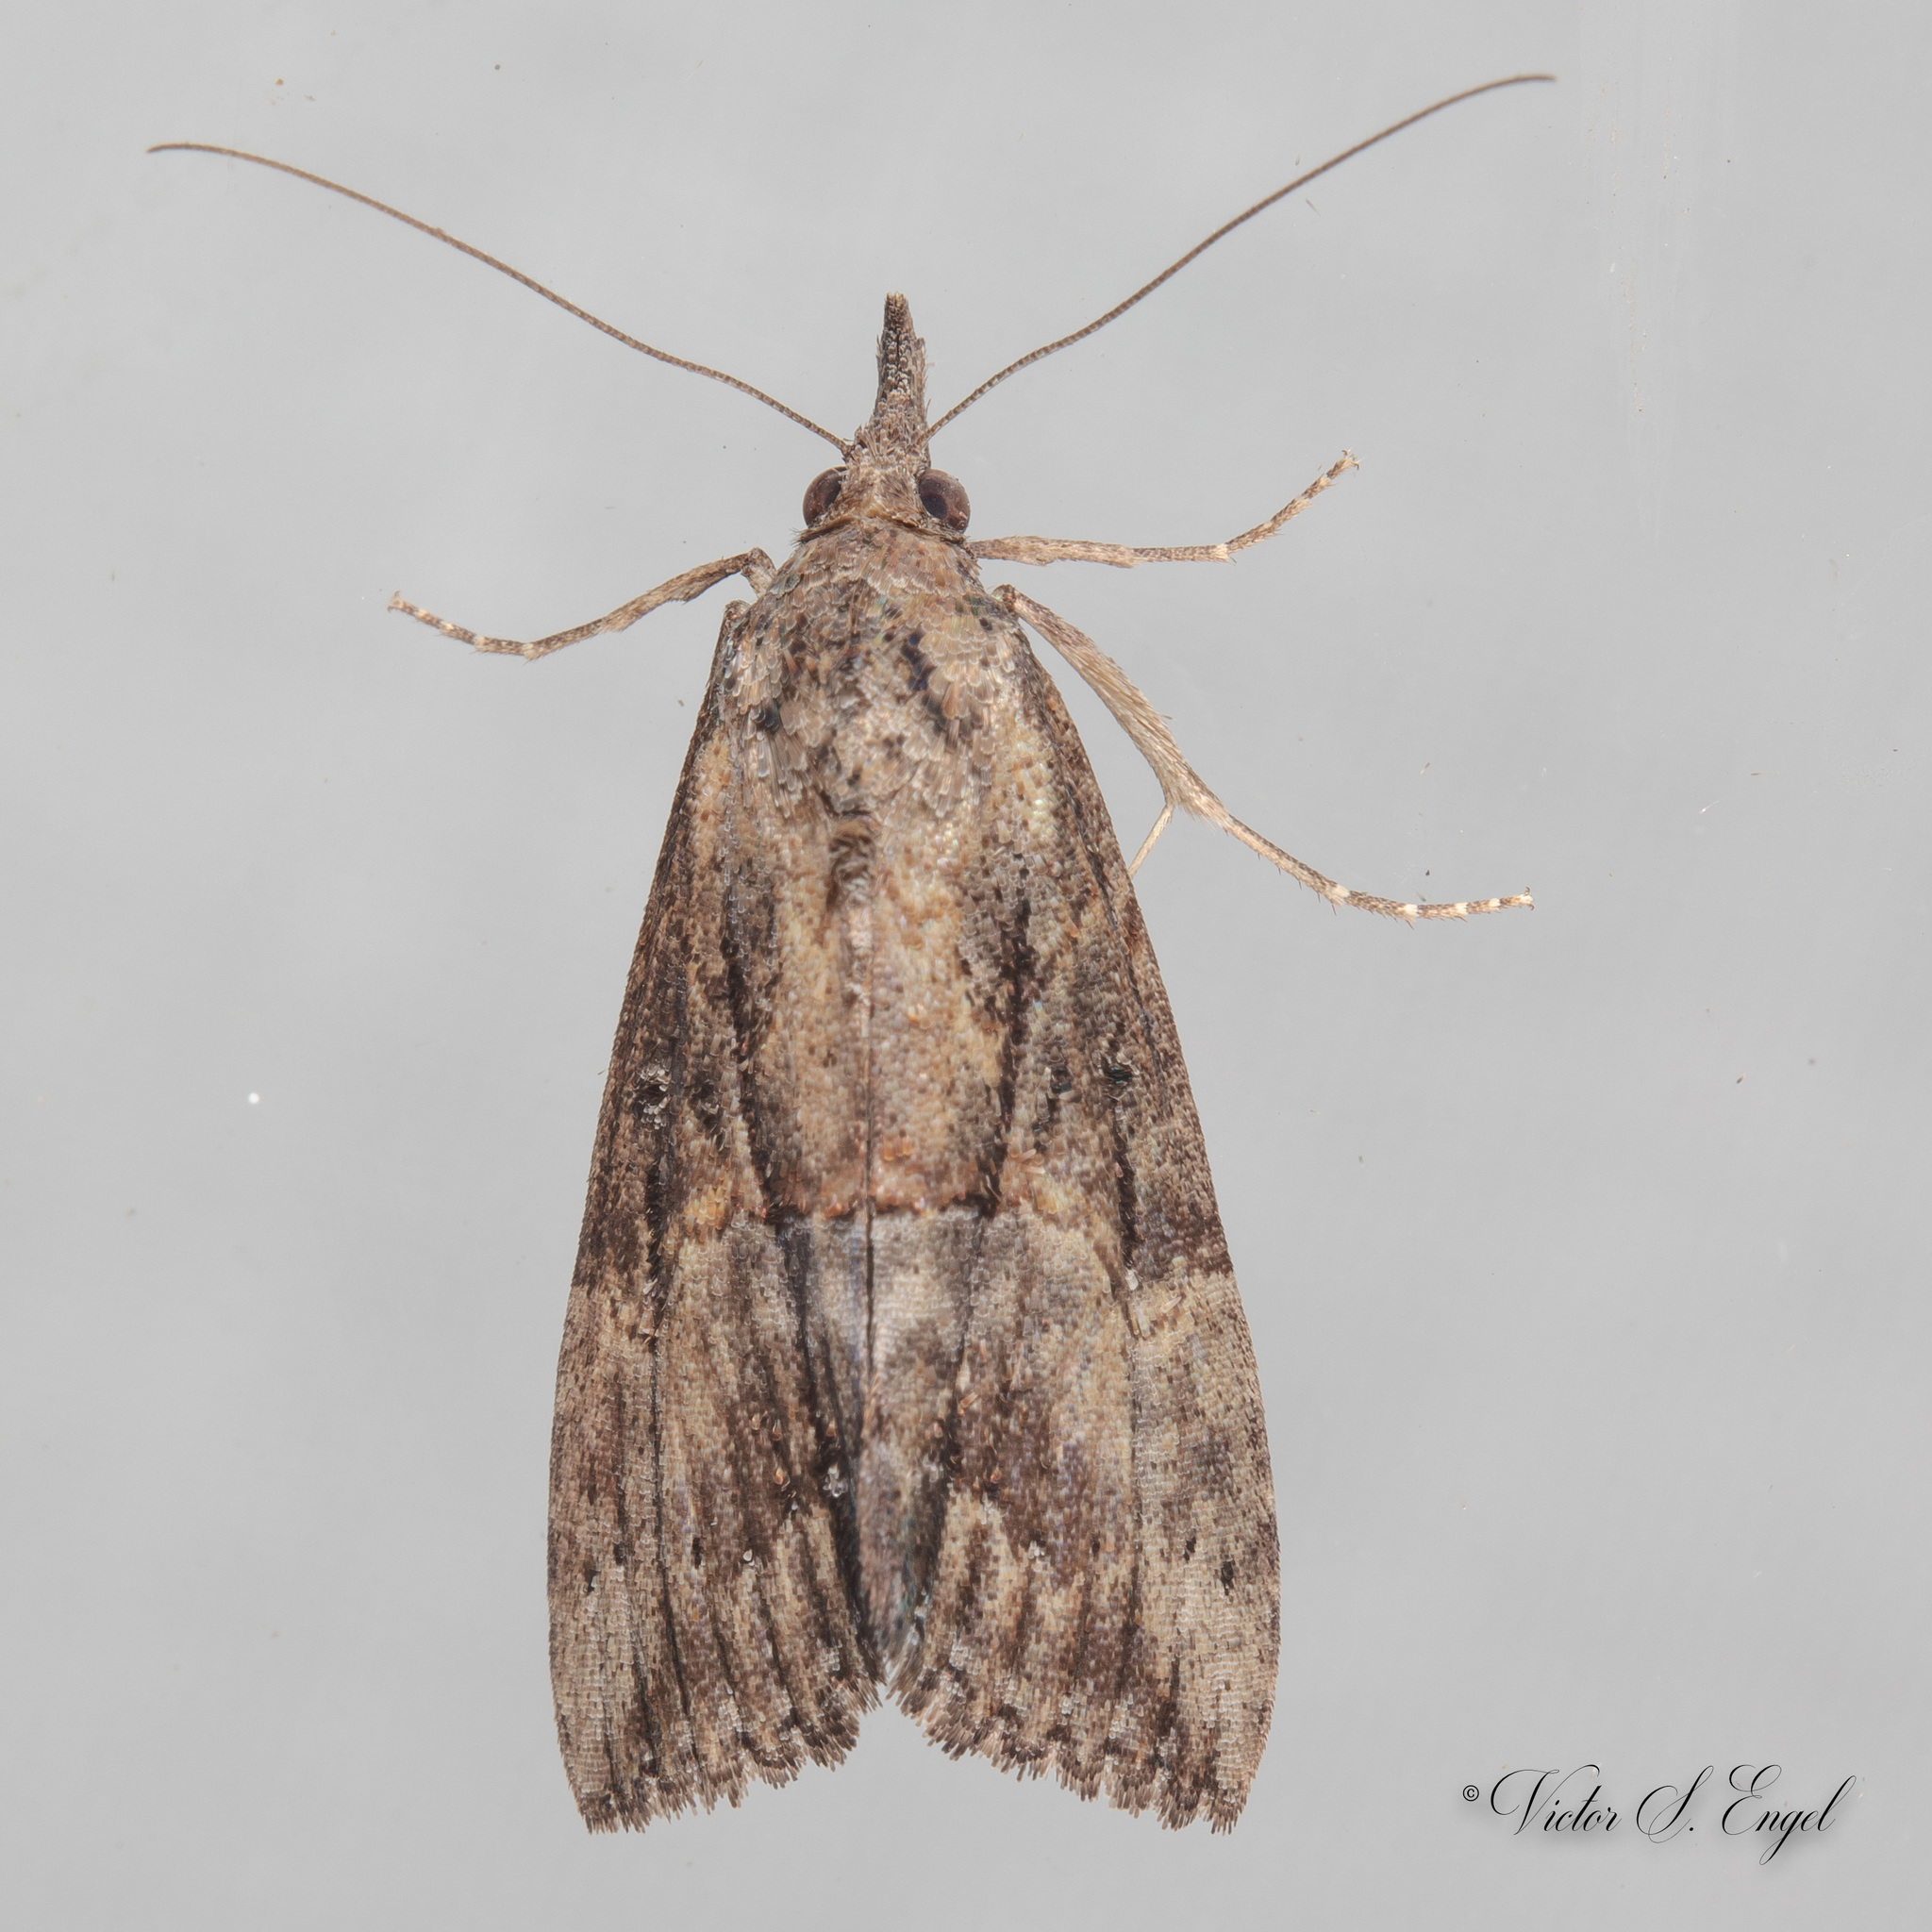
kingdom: Animalia
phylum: Arthropoda
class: Insecta
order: Lepidoptera
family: Erebidae
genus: Hypena
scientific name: Hypena scabra
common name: Green cloverworm
